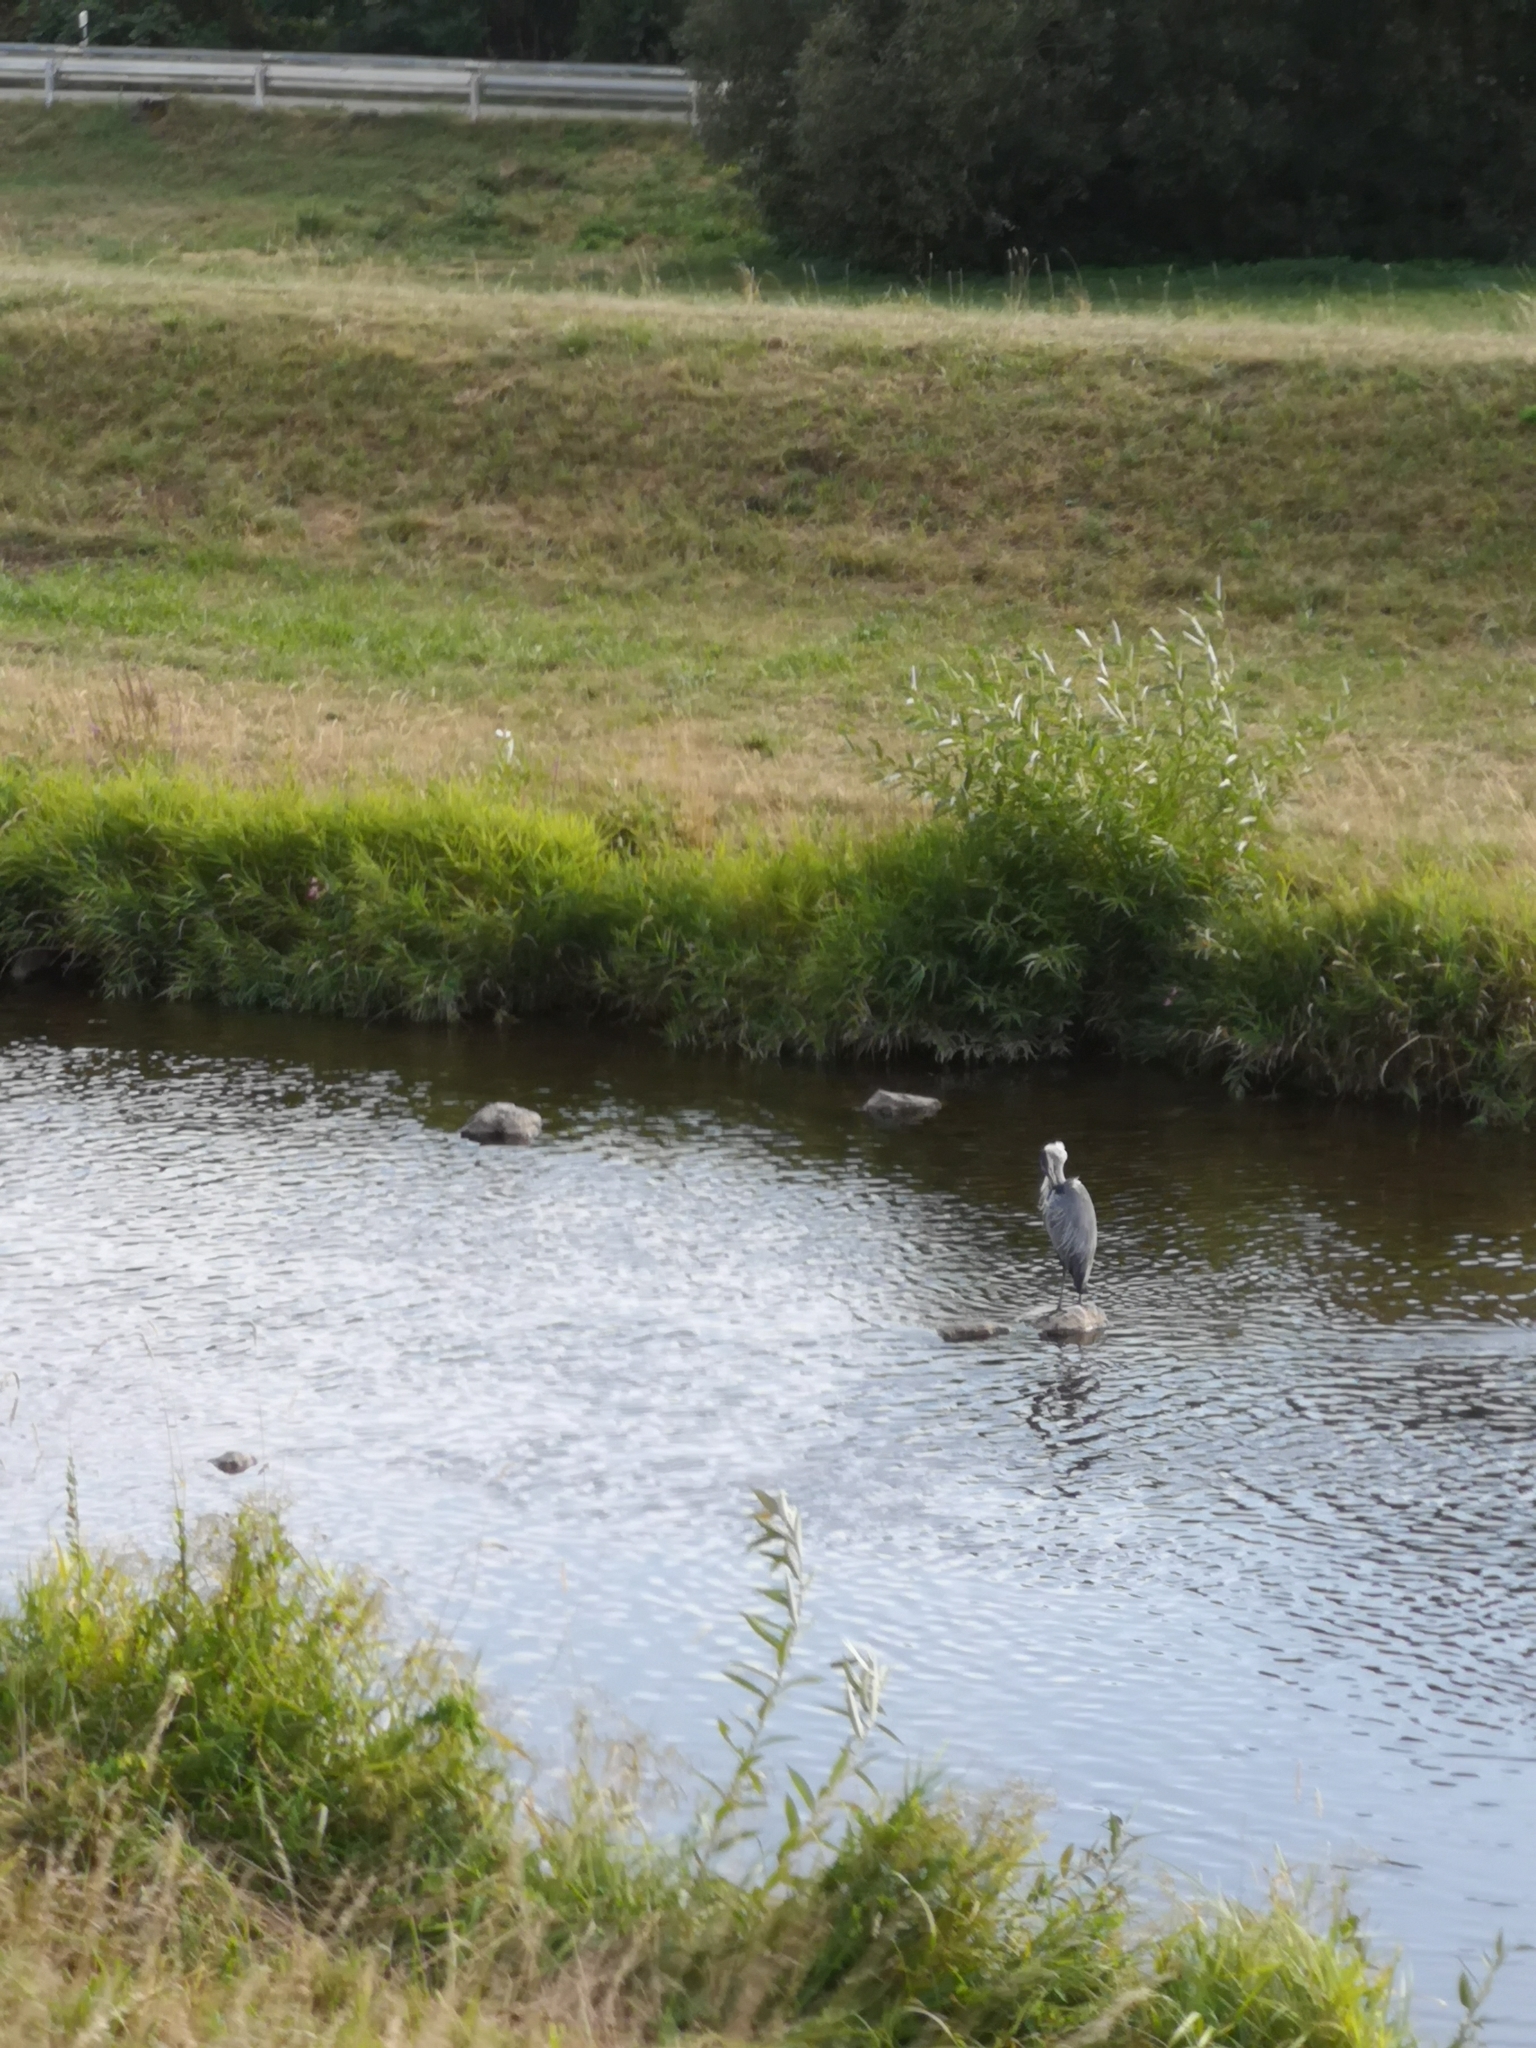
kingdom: Animalia
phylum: Chordata
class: Aves
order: Pelecaniformes
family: Ardeidae
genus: Ardea
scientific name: Ardea cinerea
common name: Grey heron
